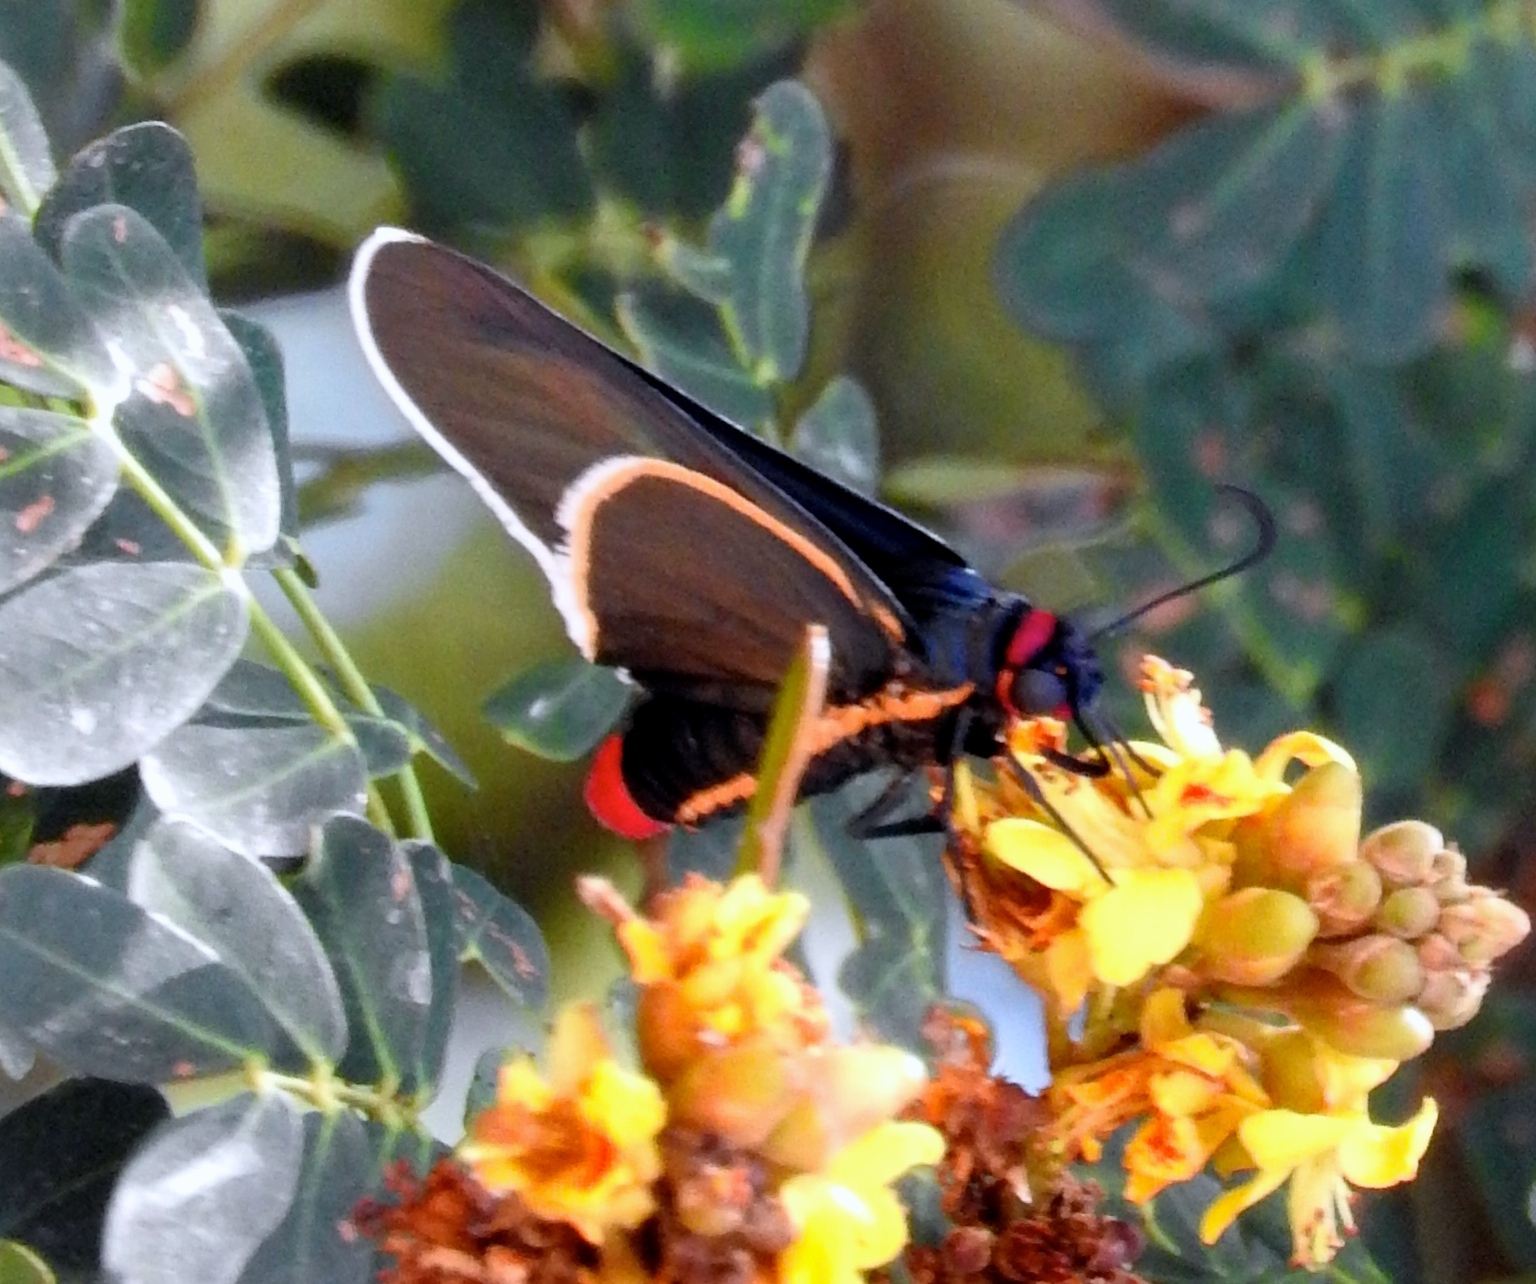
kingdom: Animalia
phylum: Arthropoda
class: Insecta
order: Lepidoptera
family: Hesperiidae
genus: Mysoria
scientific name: Mysoria affinis
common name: Red-collared firetip
